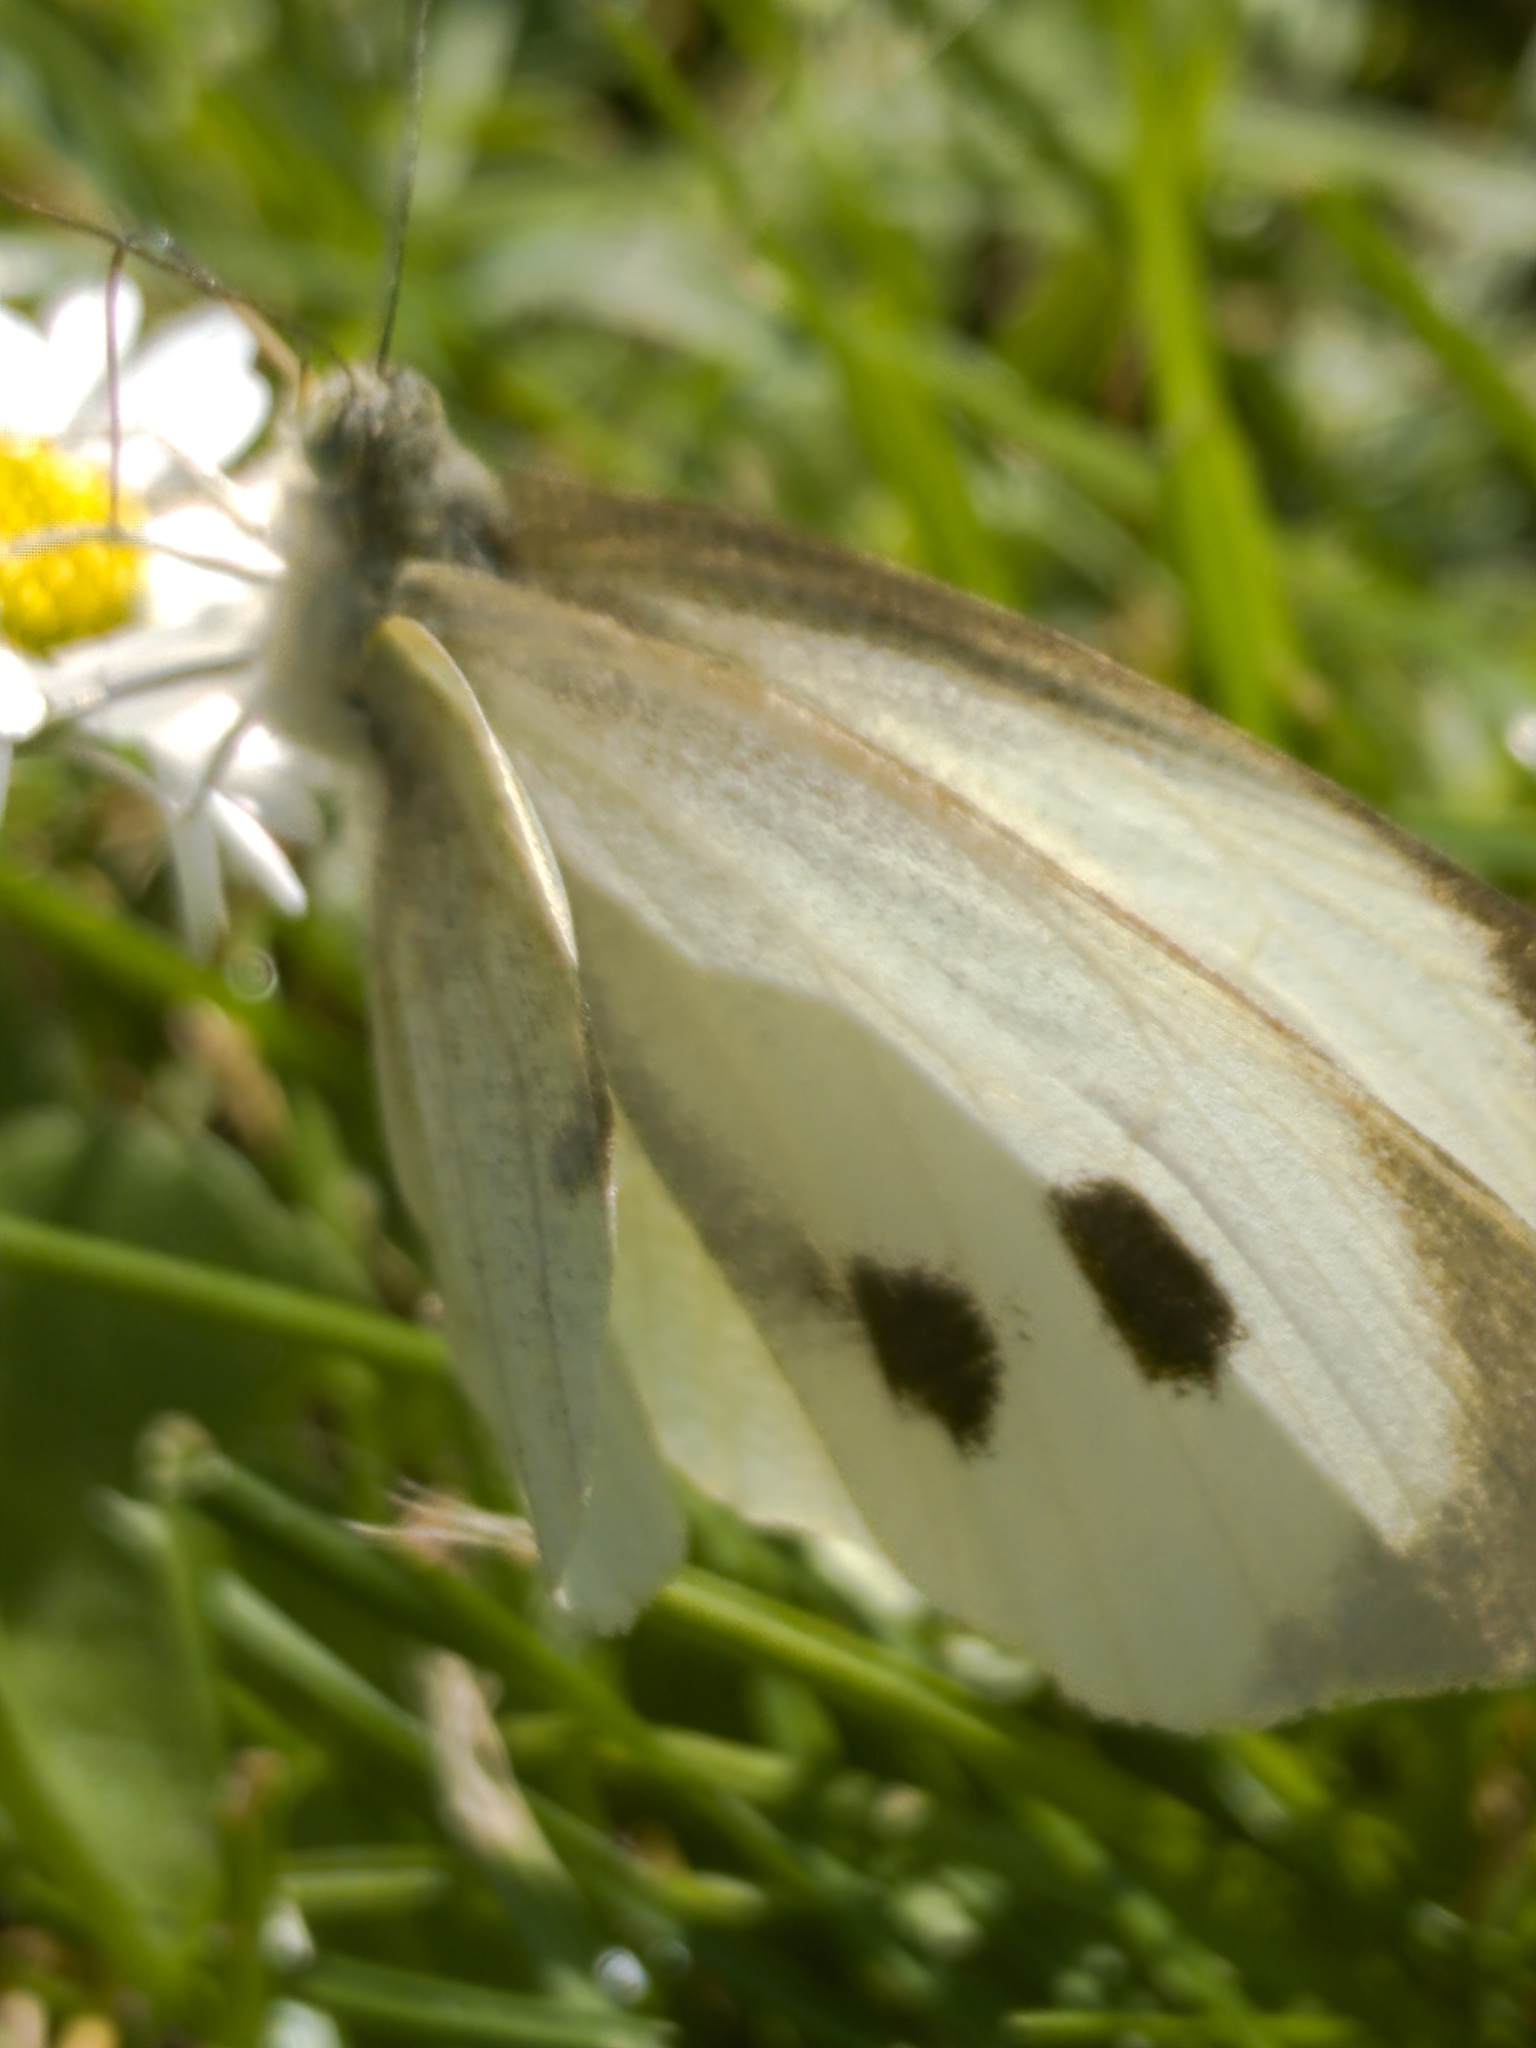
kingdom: Animalia
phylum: Arthropoda
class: Insecta
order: Lepidoptera
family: Pieridae
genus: Pieris
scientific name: Pieris brassicae
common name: Large white
